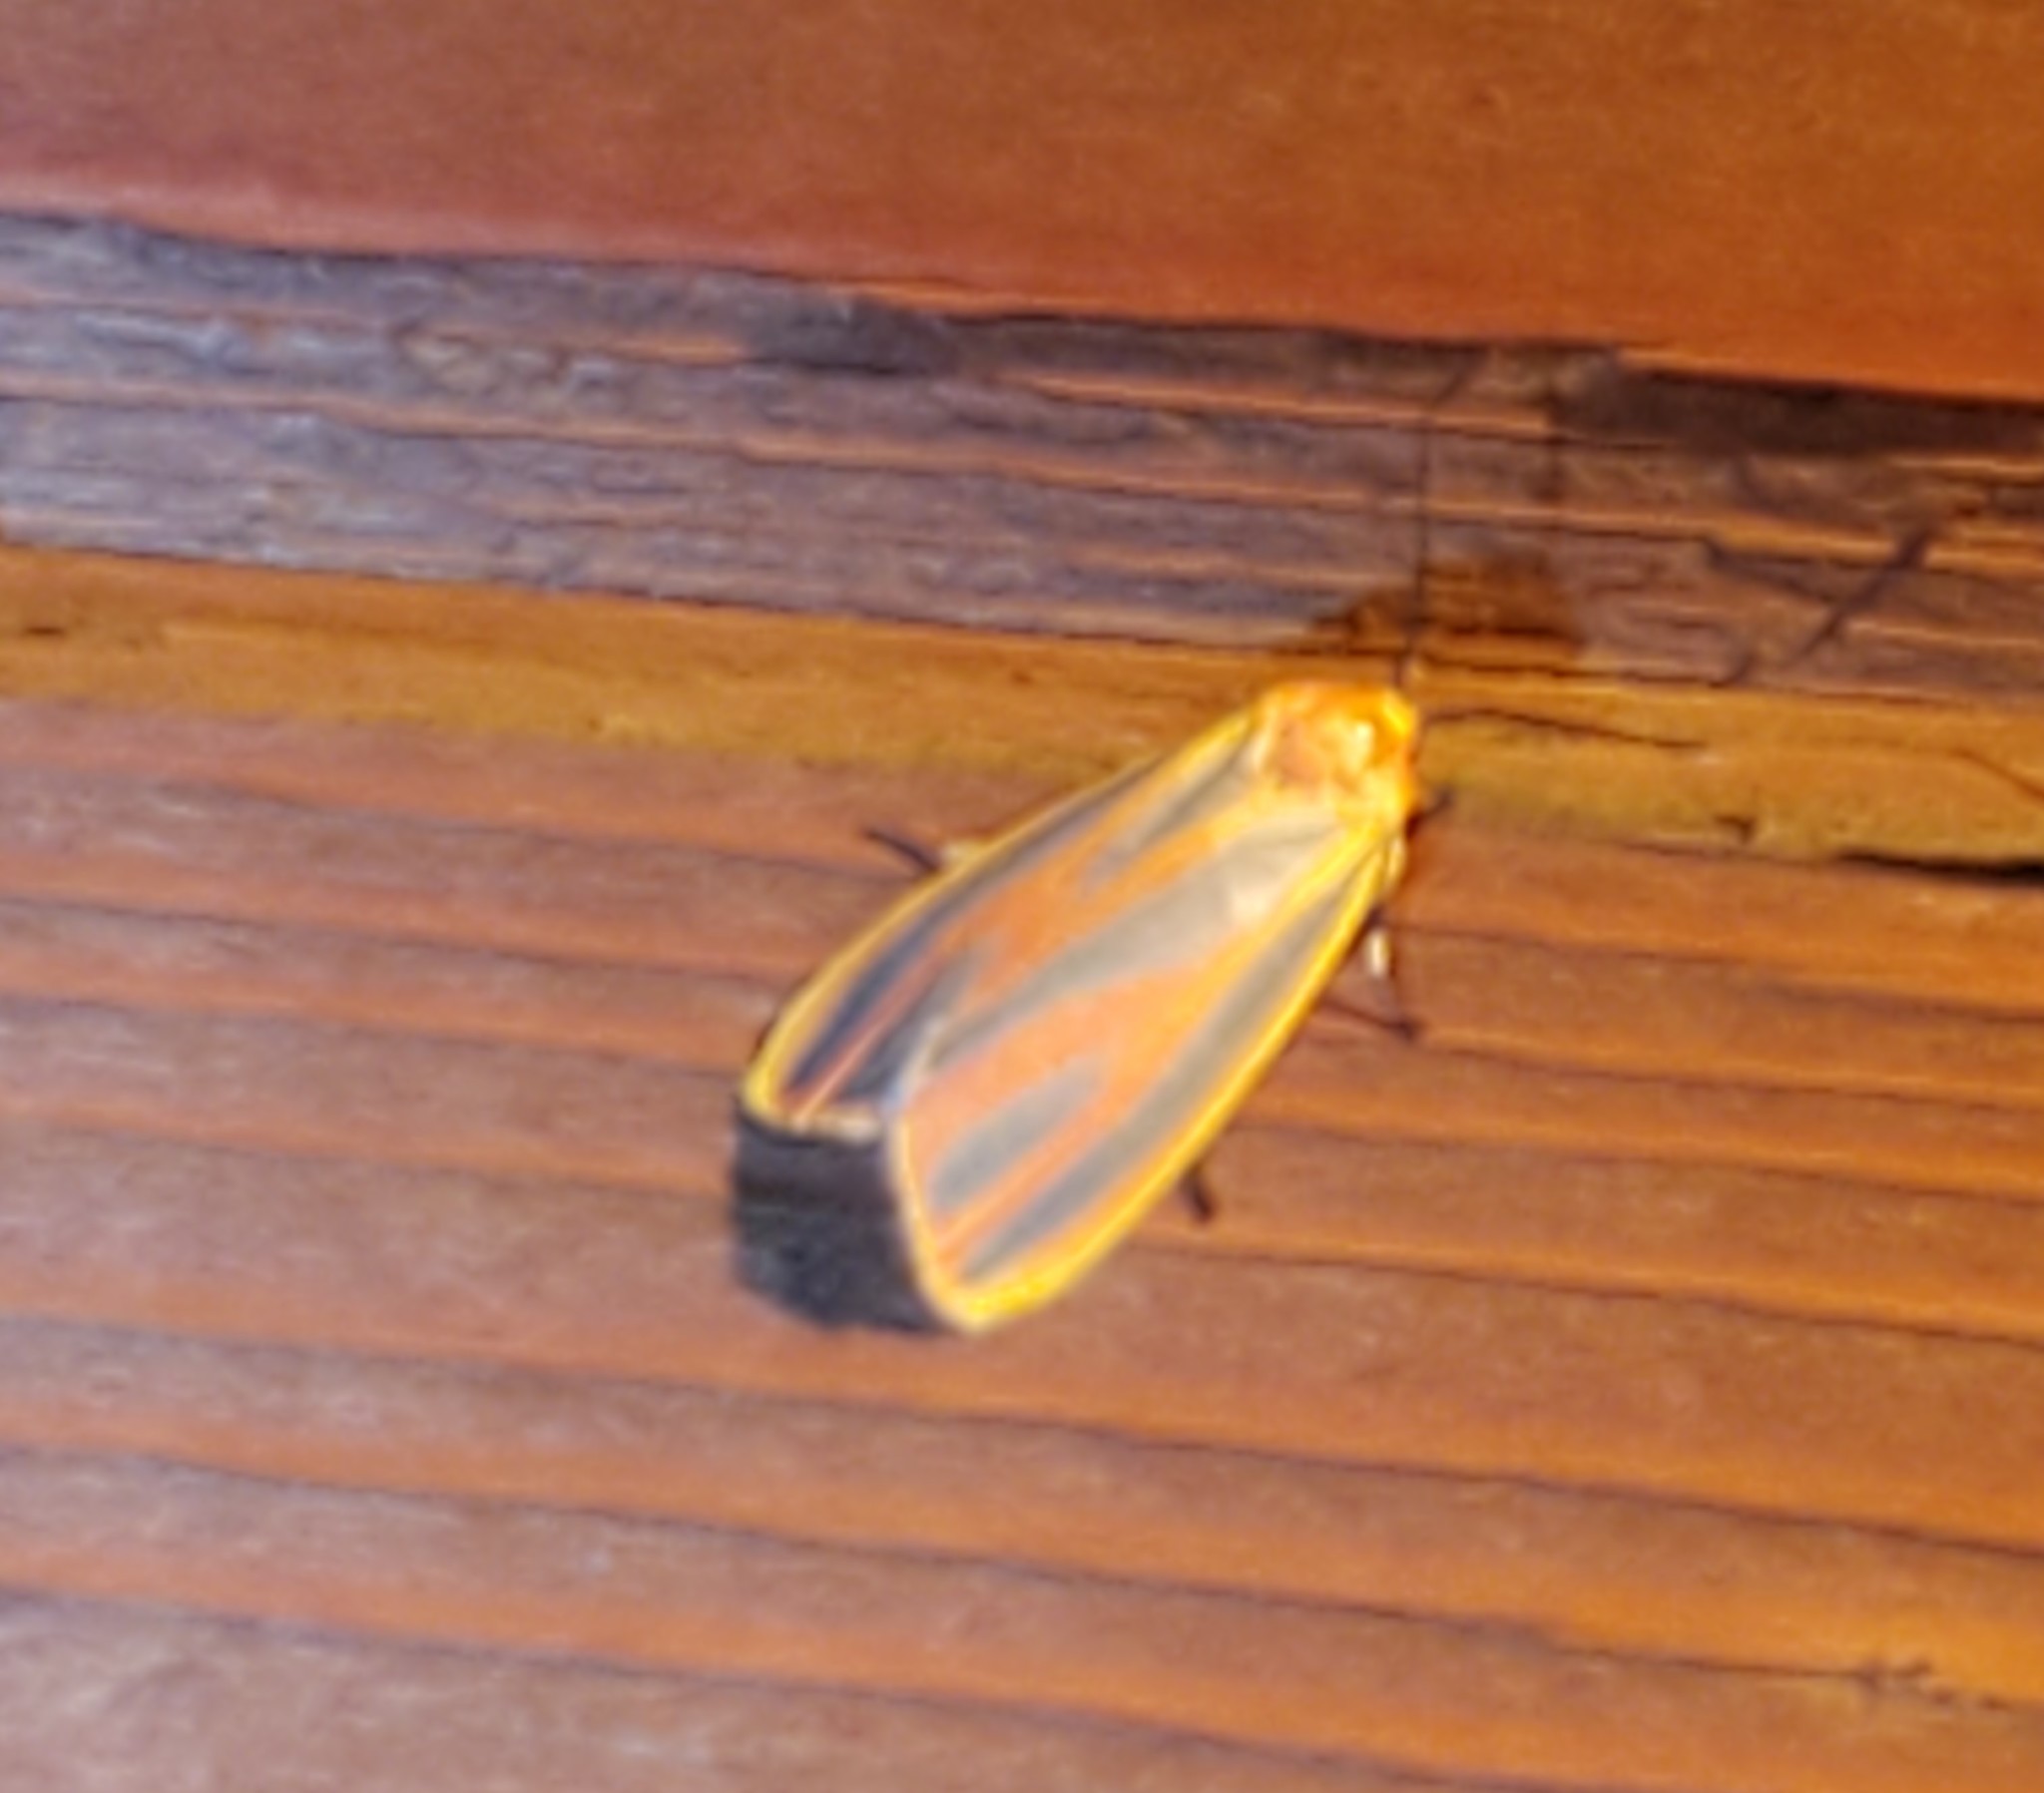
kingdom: Animalia
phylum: Arthropoda
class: Insecta
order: Lepidoptera
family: Erebidae
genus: Hypoprepia
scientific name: Hypoprepia fucosa
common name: Painted lichen moth
